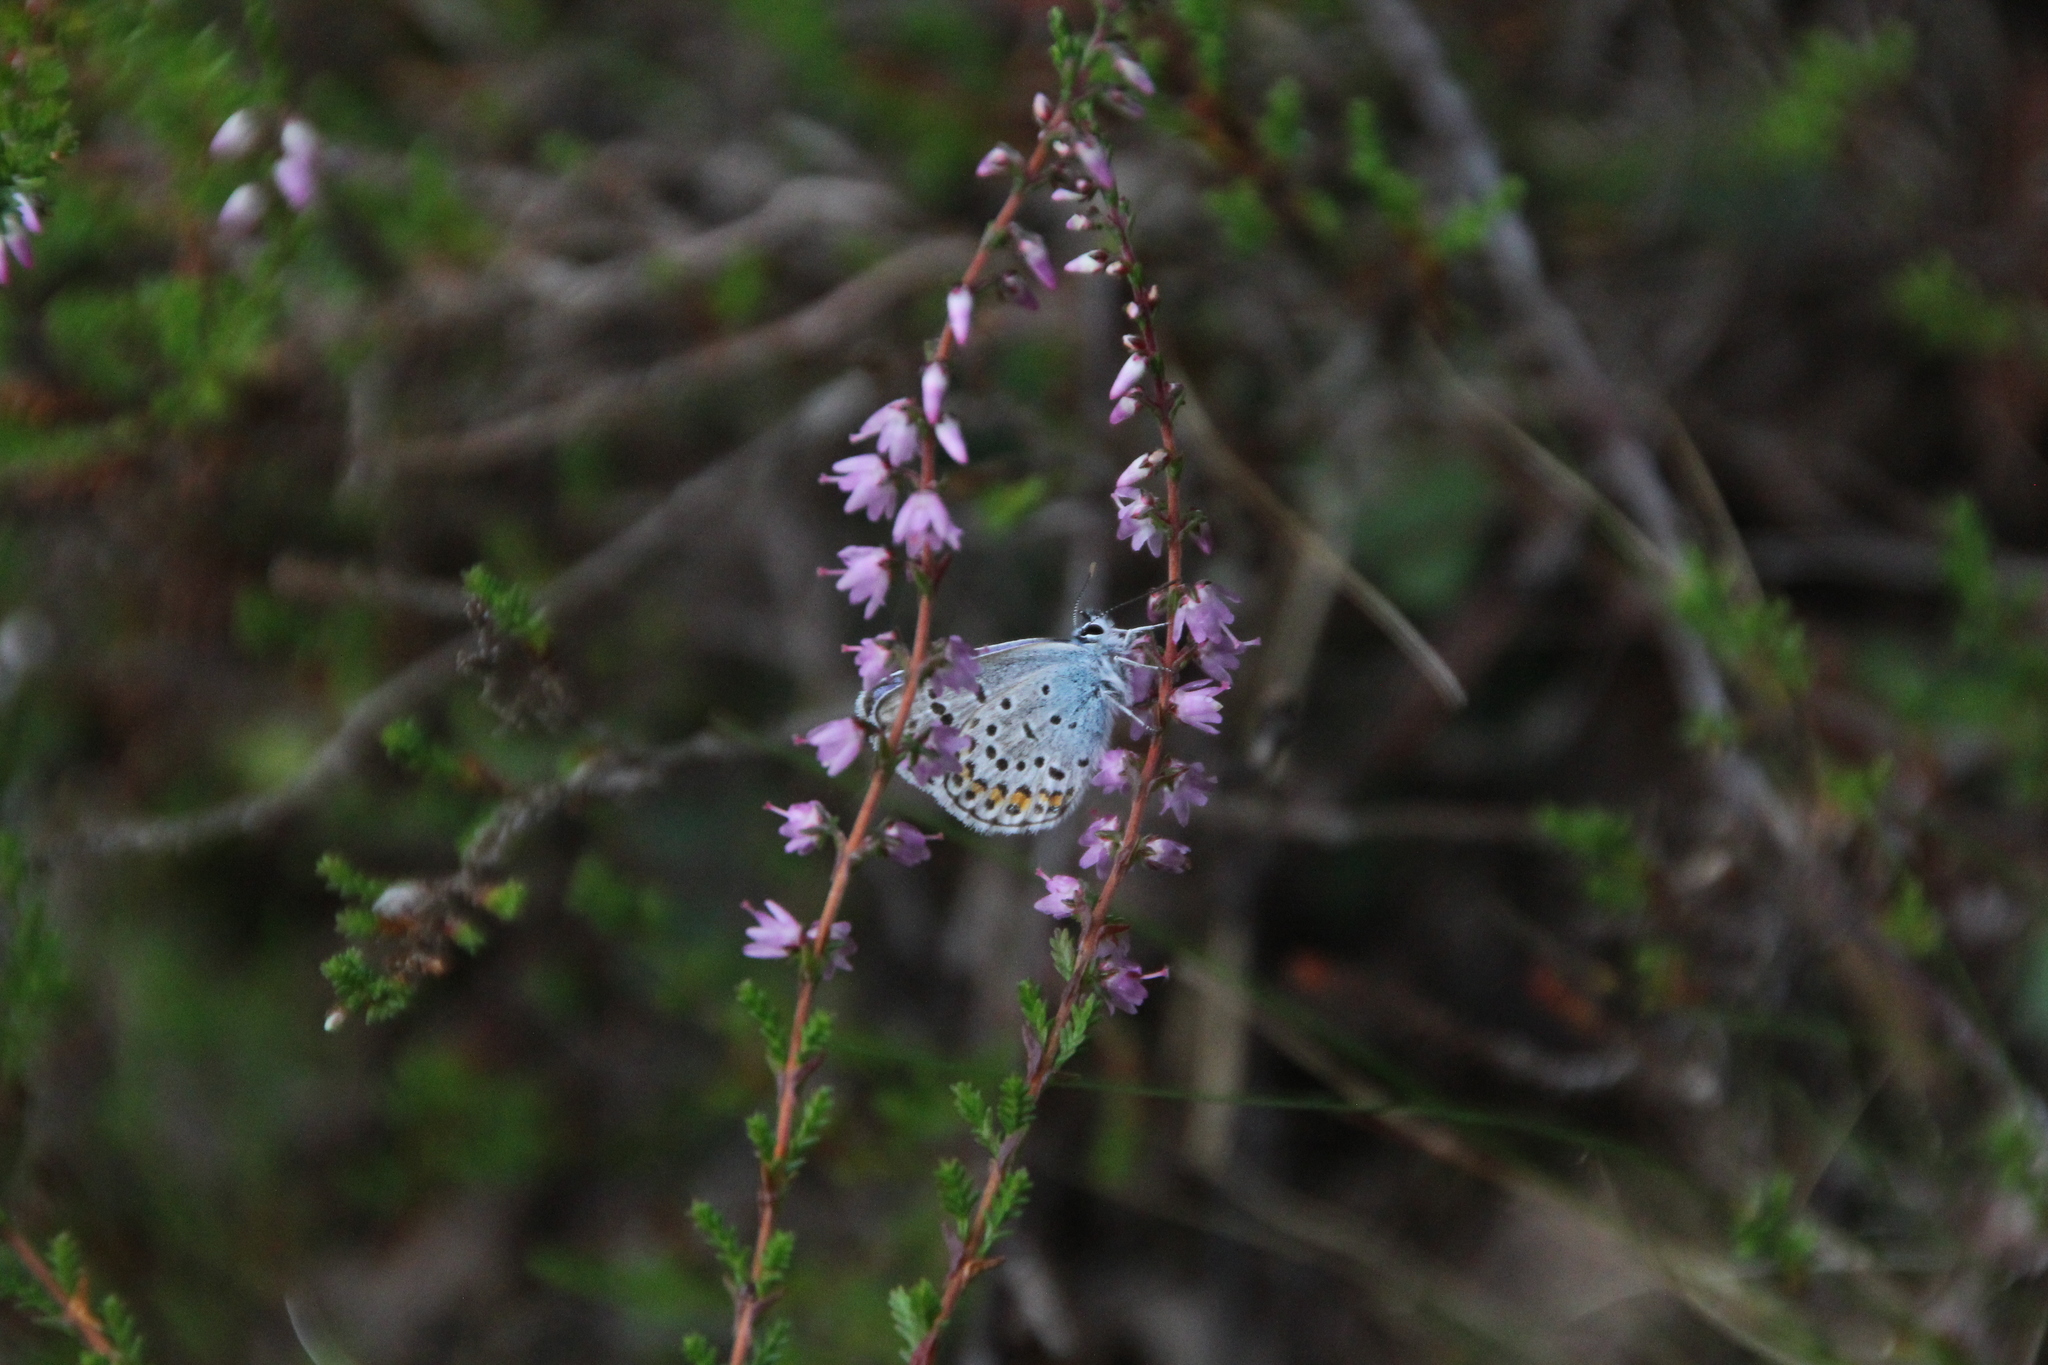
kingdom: Animalia
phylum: Arthropoda
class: Insecta
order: Lepidoptera
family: Lycaenidae
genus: Plebejus
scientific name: Plebejus argus
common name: Silver-studded blue
